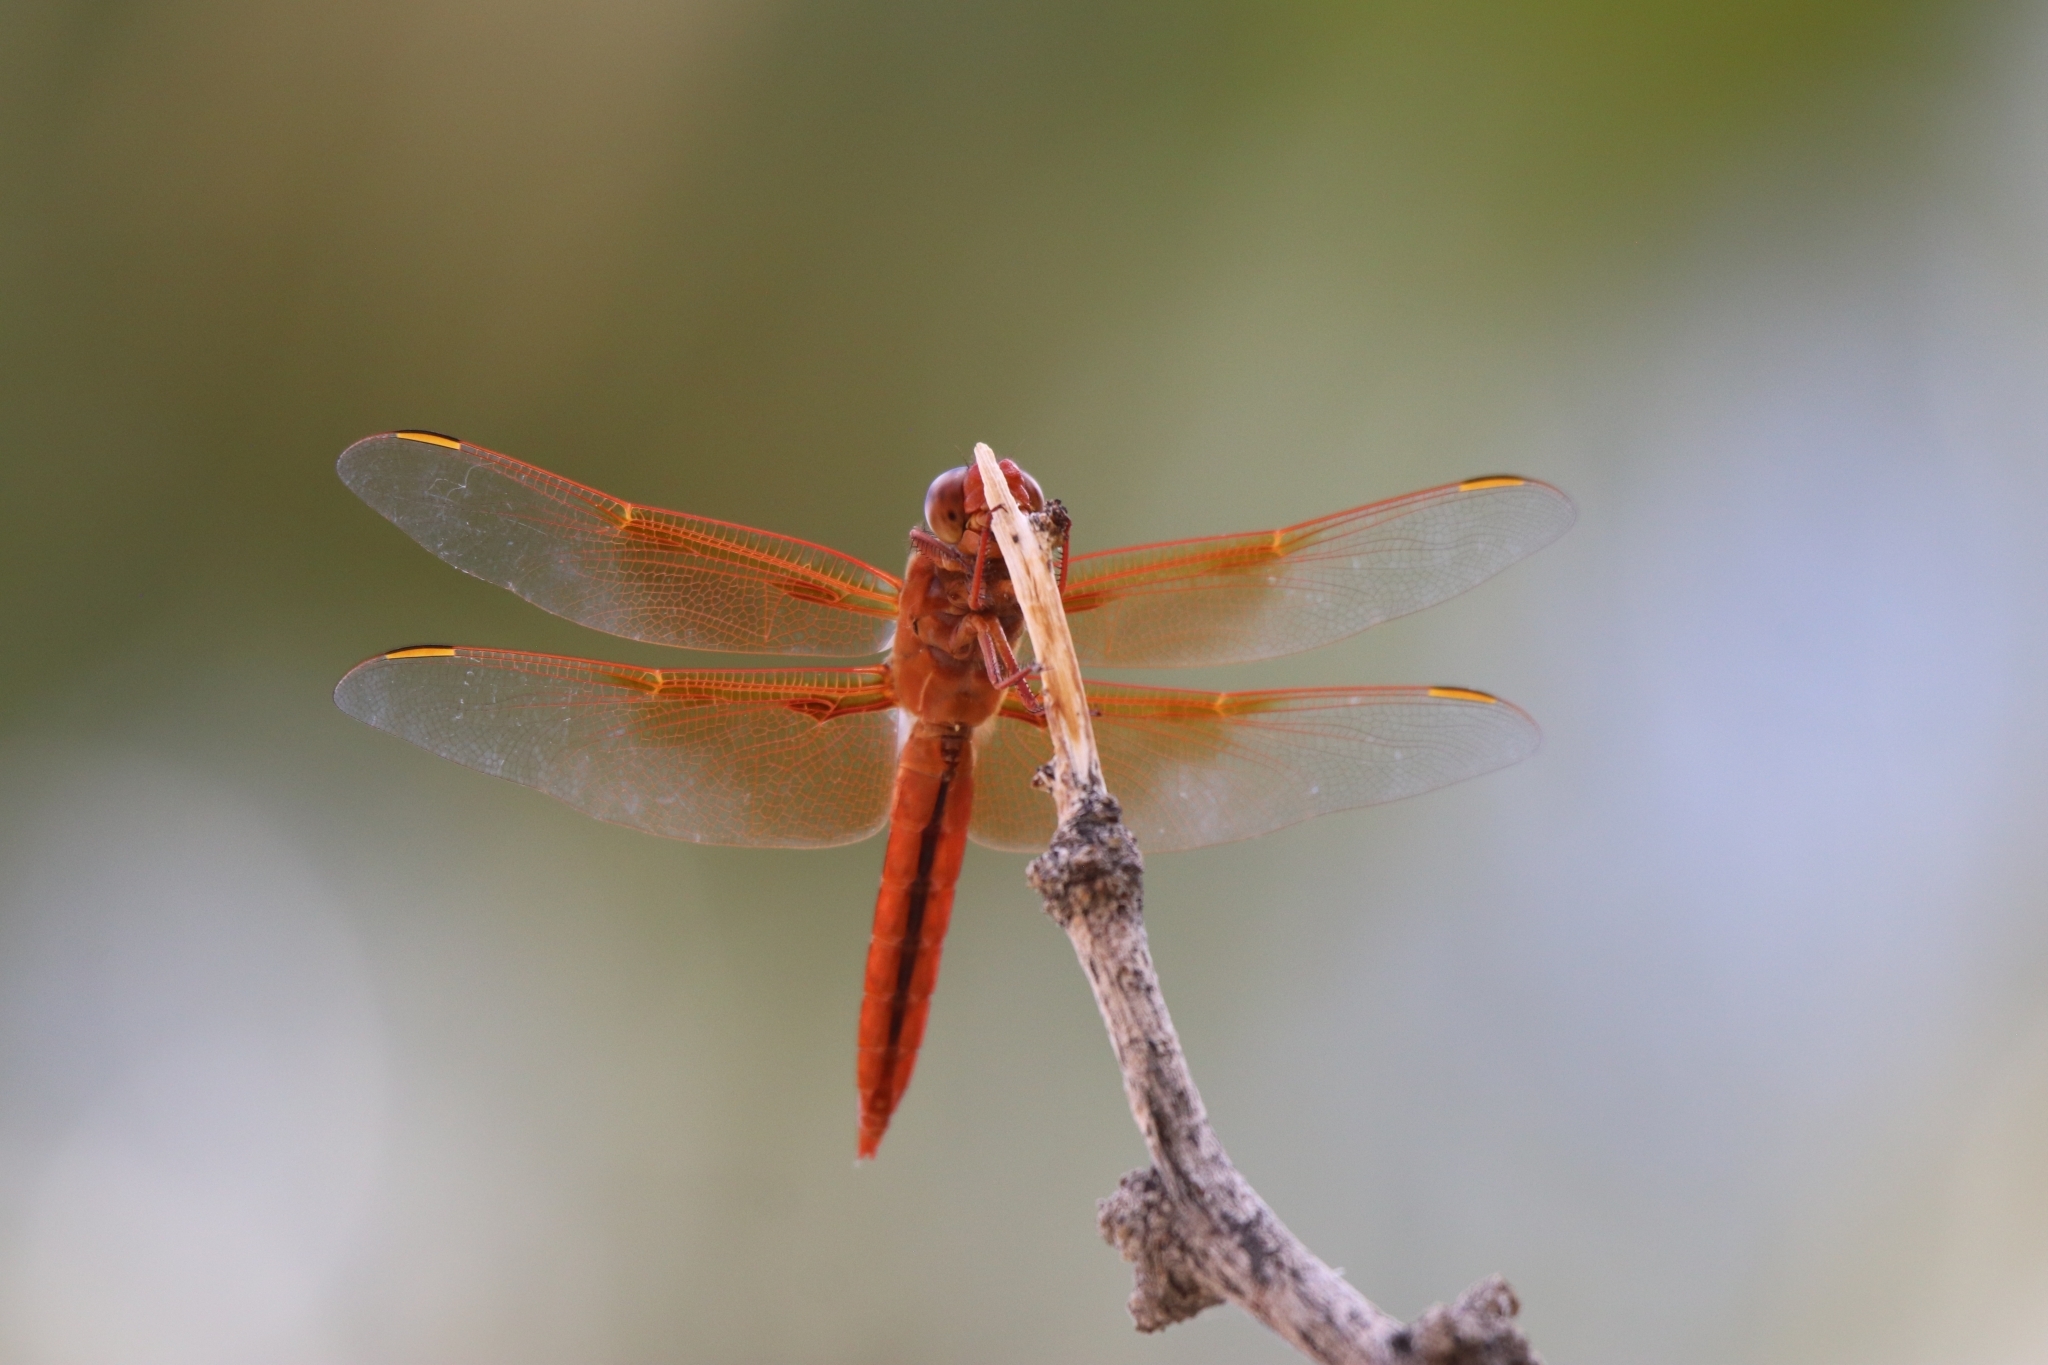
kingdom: Animalia
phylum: Arthropoda
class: Insecta
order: Odonata
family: Libellulidae
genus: Libellula
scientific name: Libellula saturata
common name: Flame skimmer
